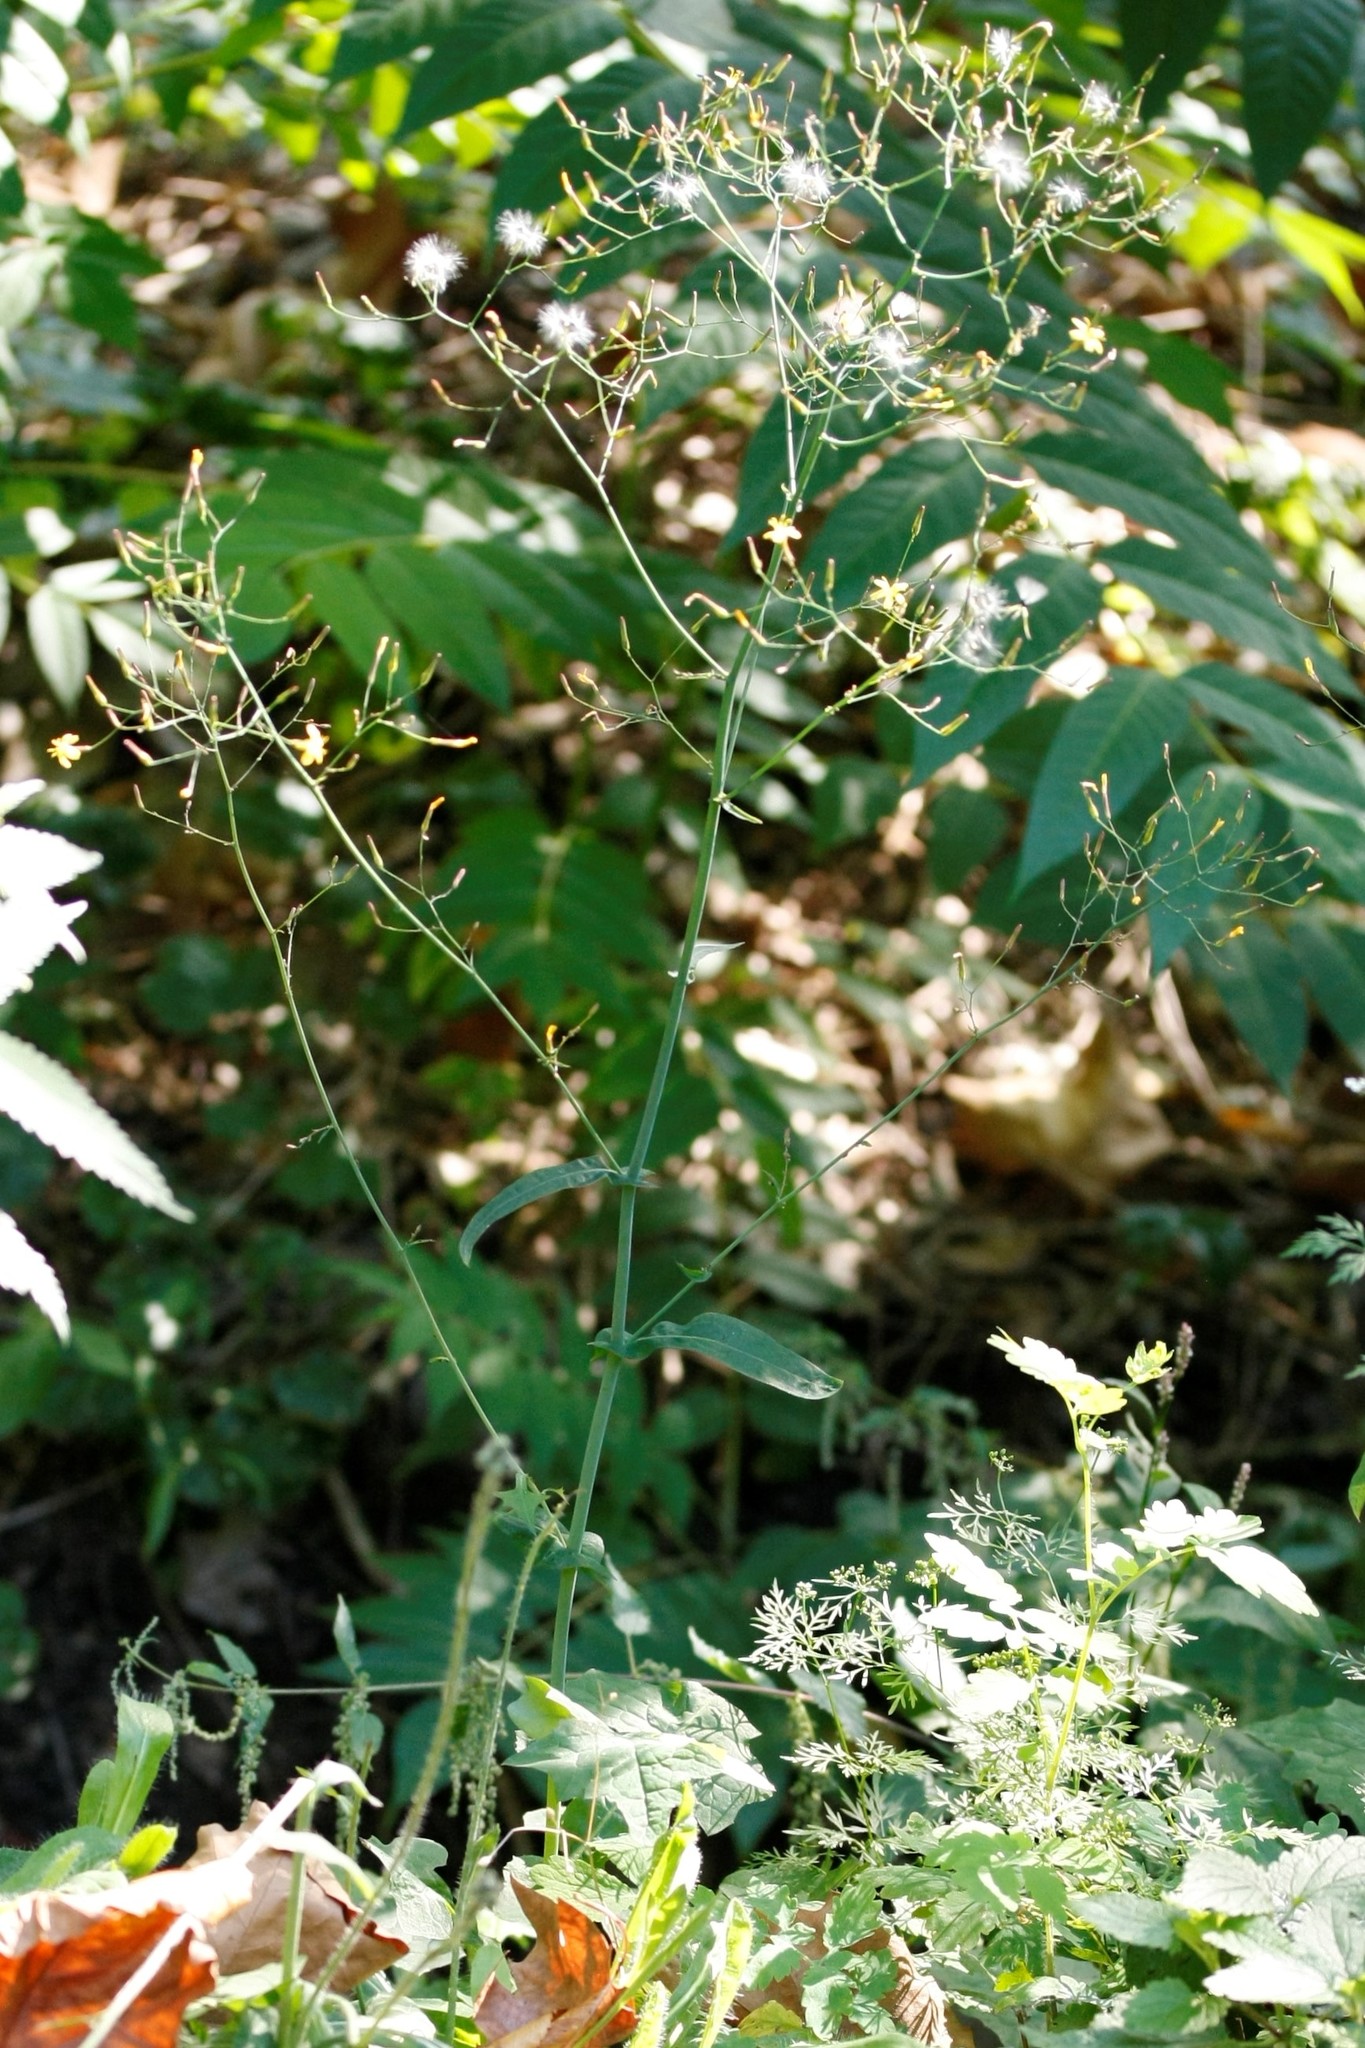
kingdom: Plantae
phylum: Tracheophyta
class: Magnoliopsida
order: Asterales
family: Asteraceae
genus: Mycelis
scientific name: Mycelis muralis
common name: Wall lettuce
